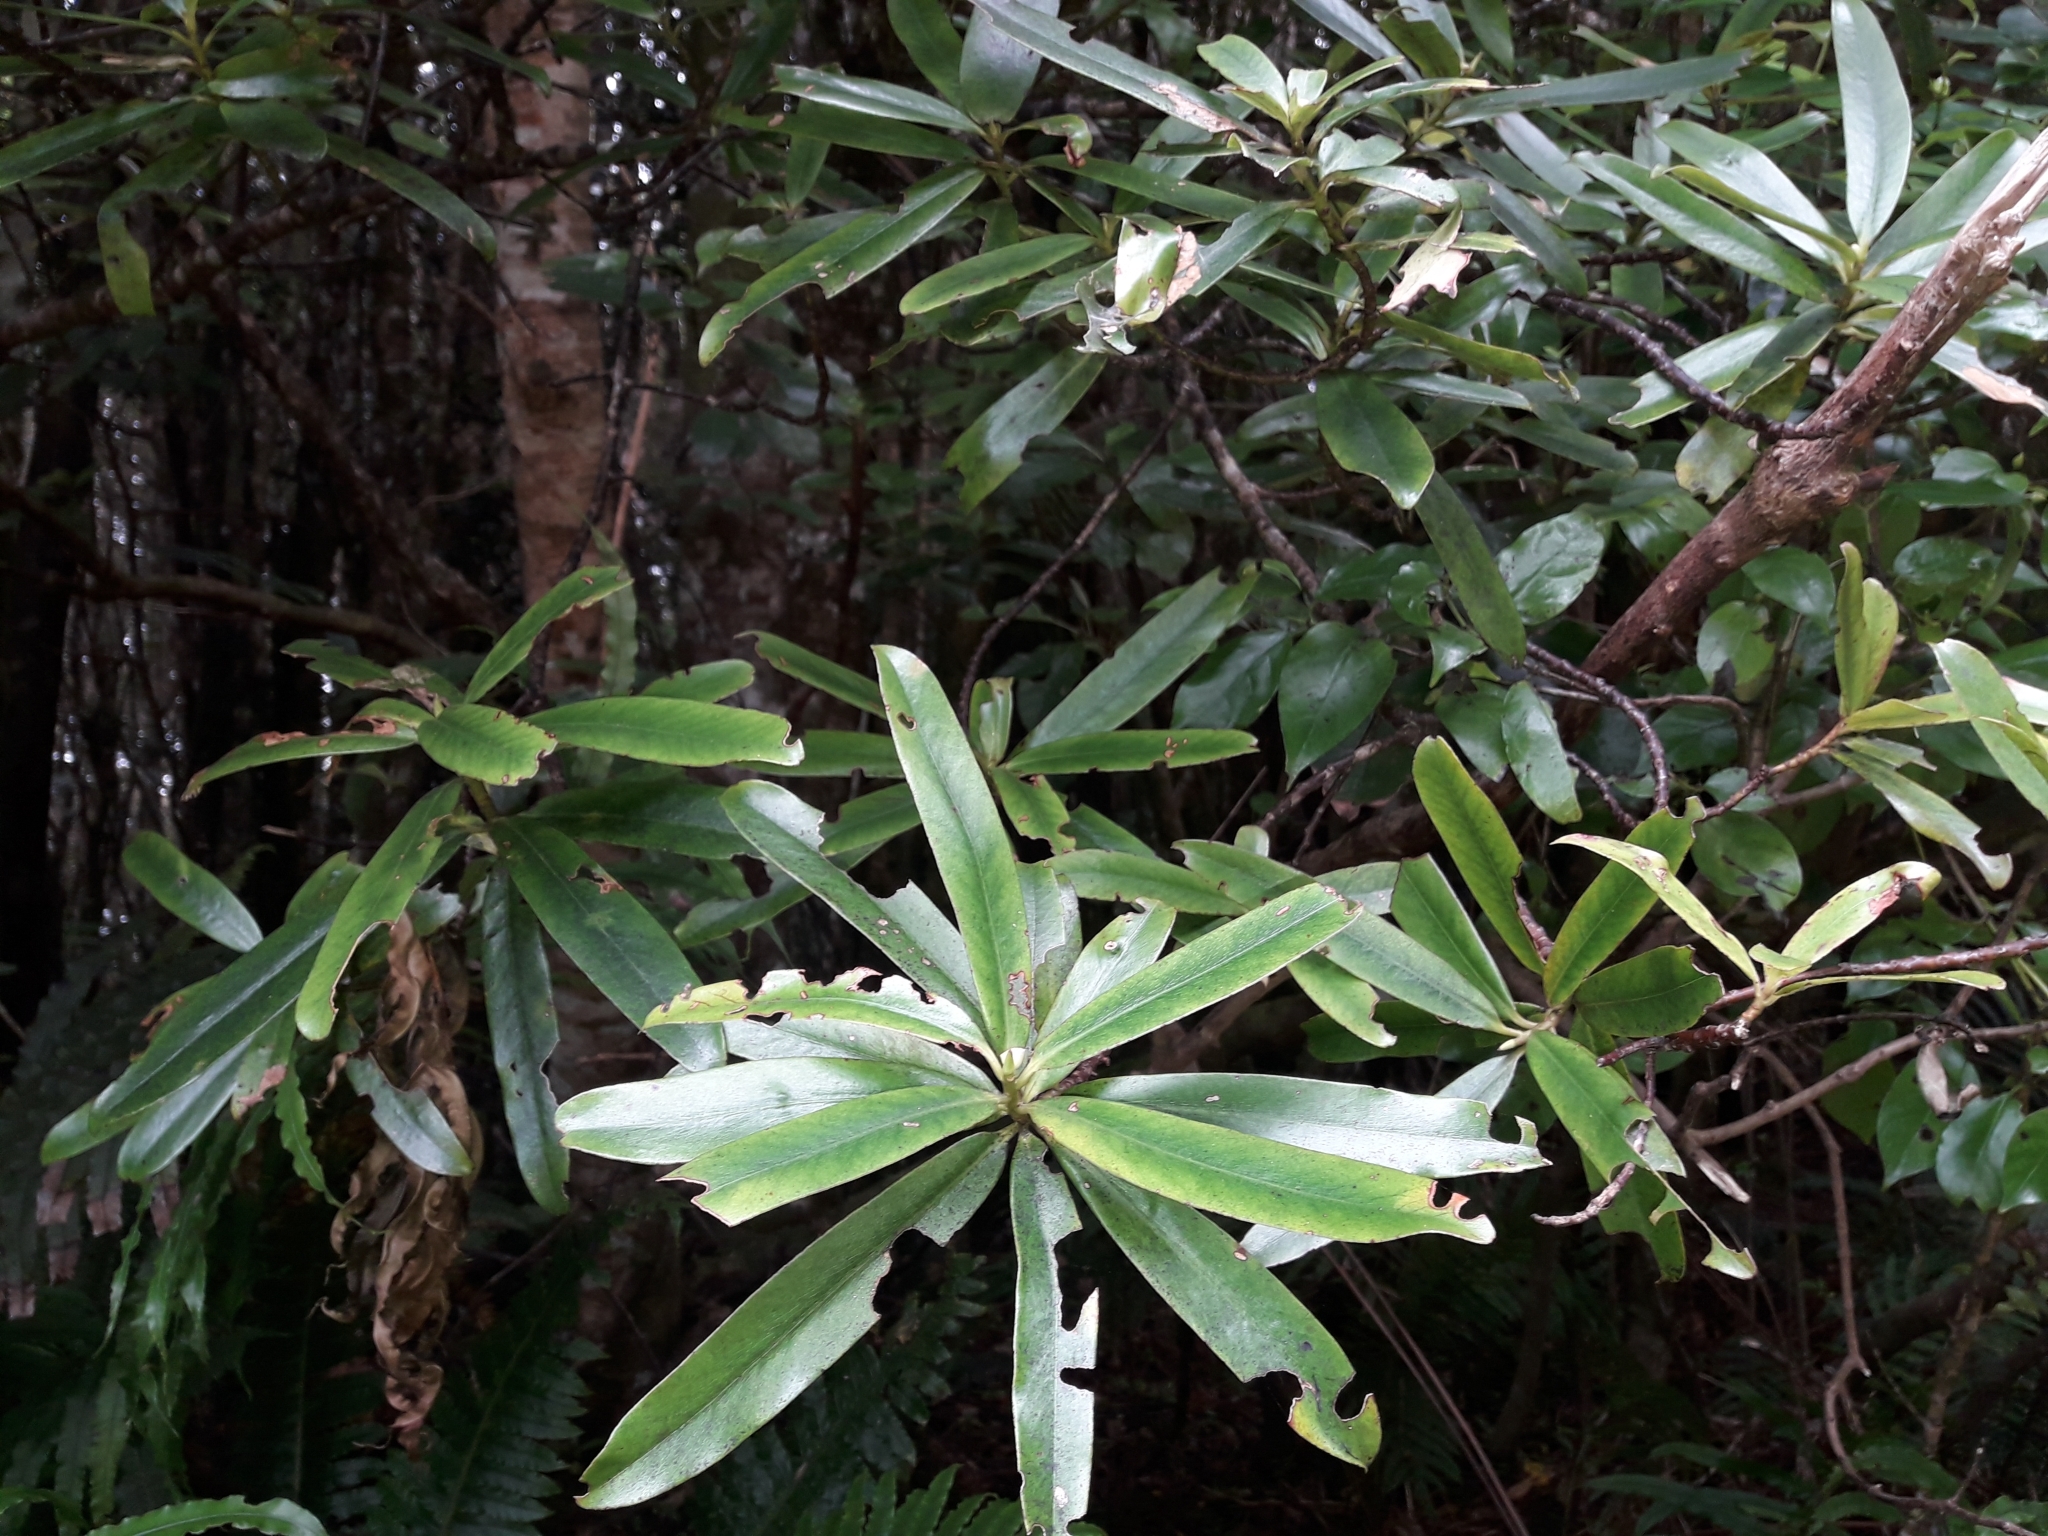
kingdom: Plantae
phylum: Tracheophyta
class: Magnoliopsida
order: Ericales
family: Primulaceae
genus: Myrsine
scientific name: Myrsine salicina
